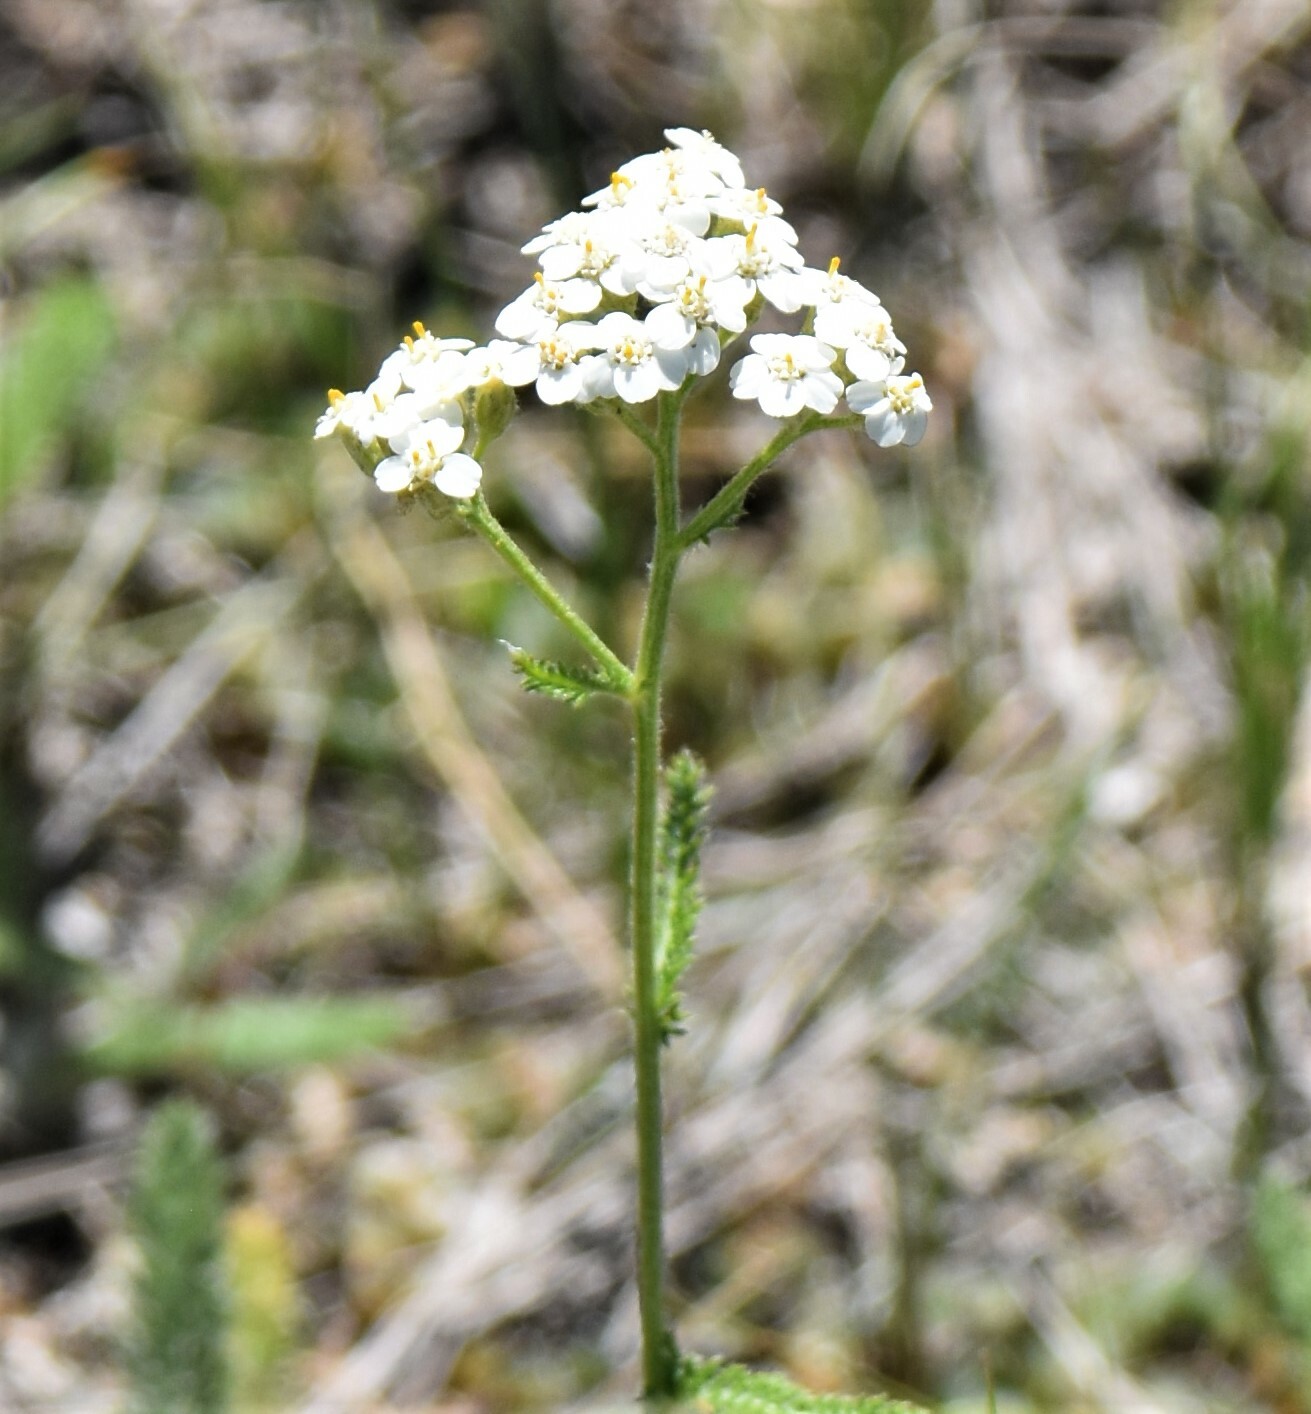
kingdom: Plantae
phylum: Tracheophyta
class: Magnoliopsida
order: Asterales
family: Asteraceae
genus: Achillea
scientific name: Achillea millefolium
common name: Yarrow
